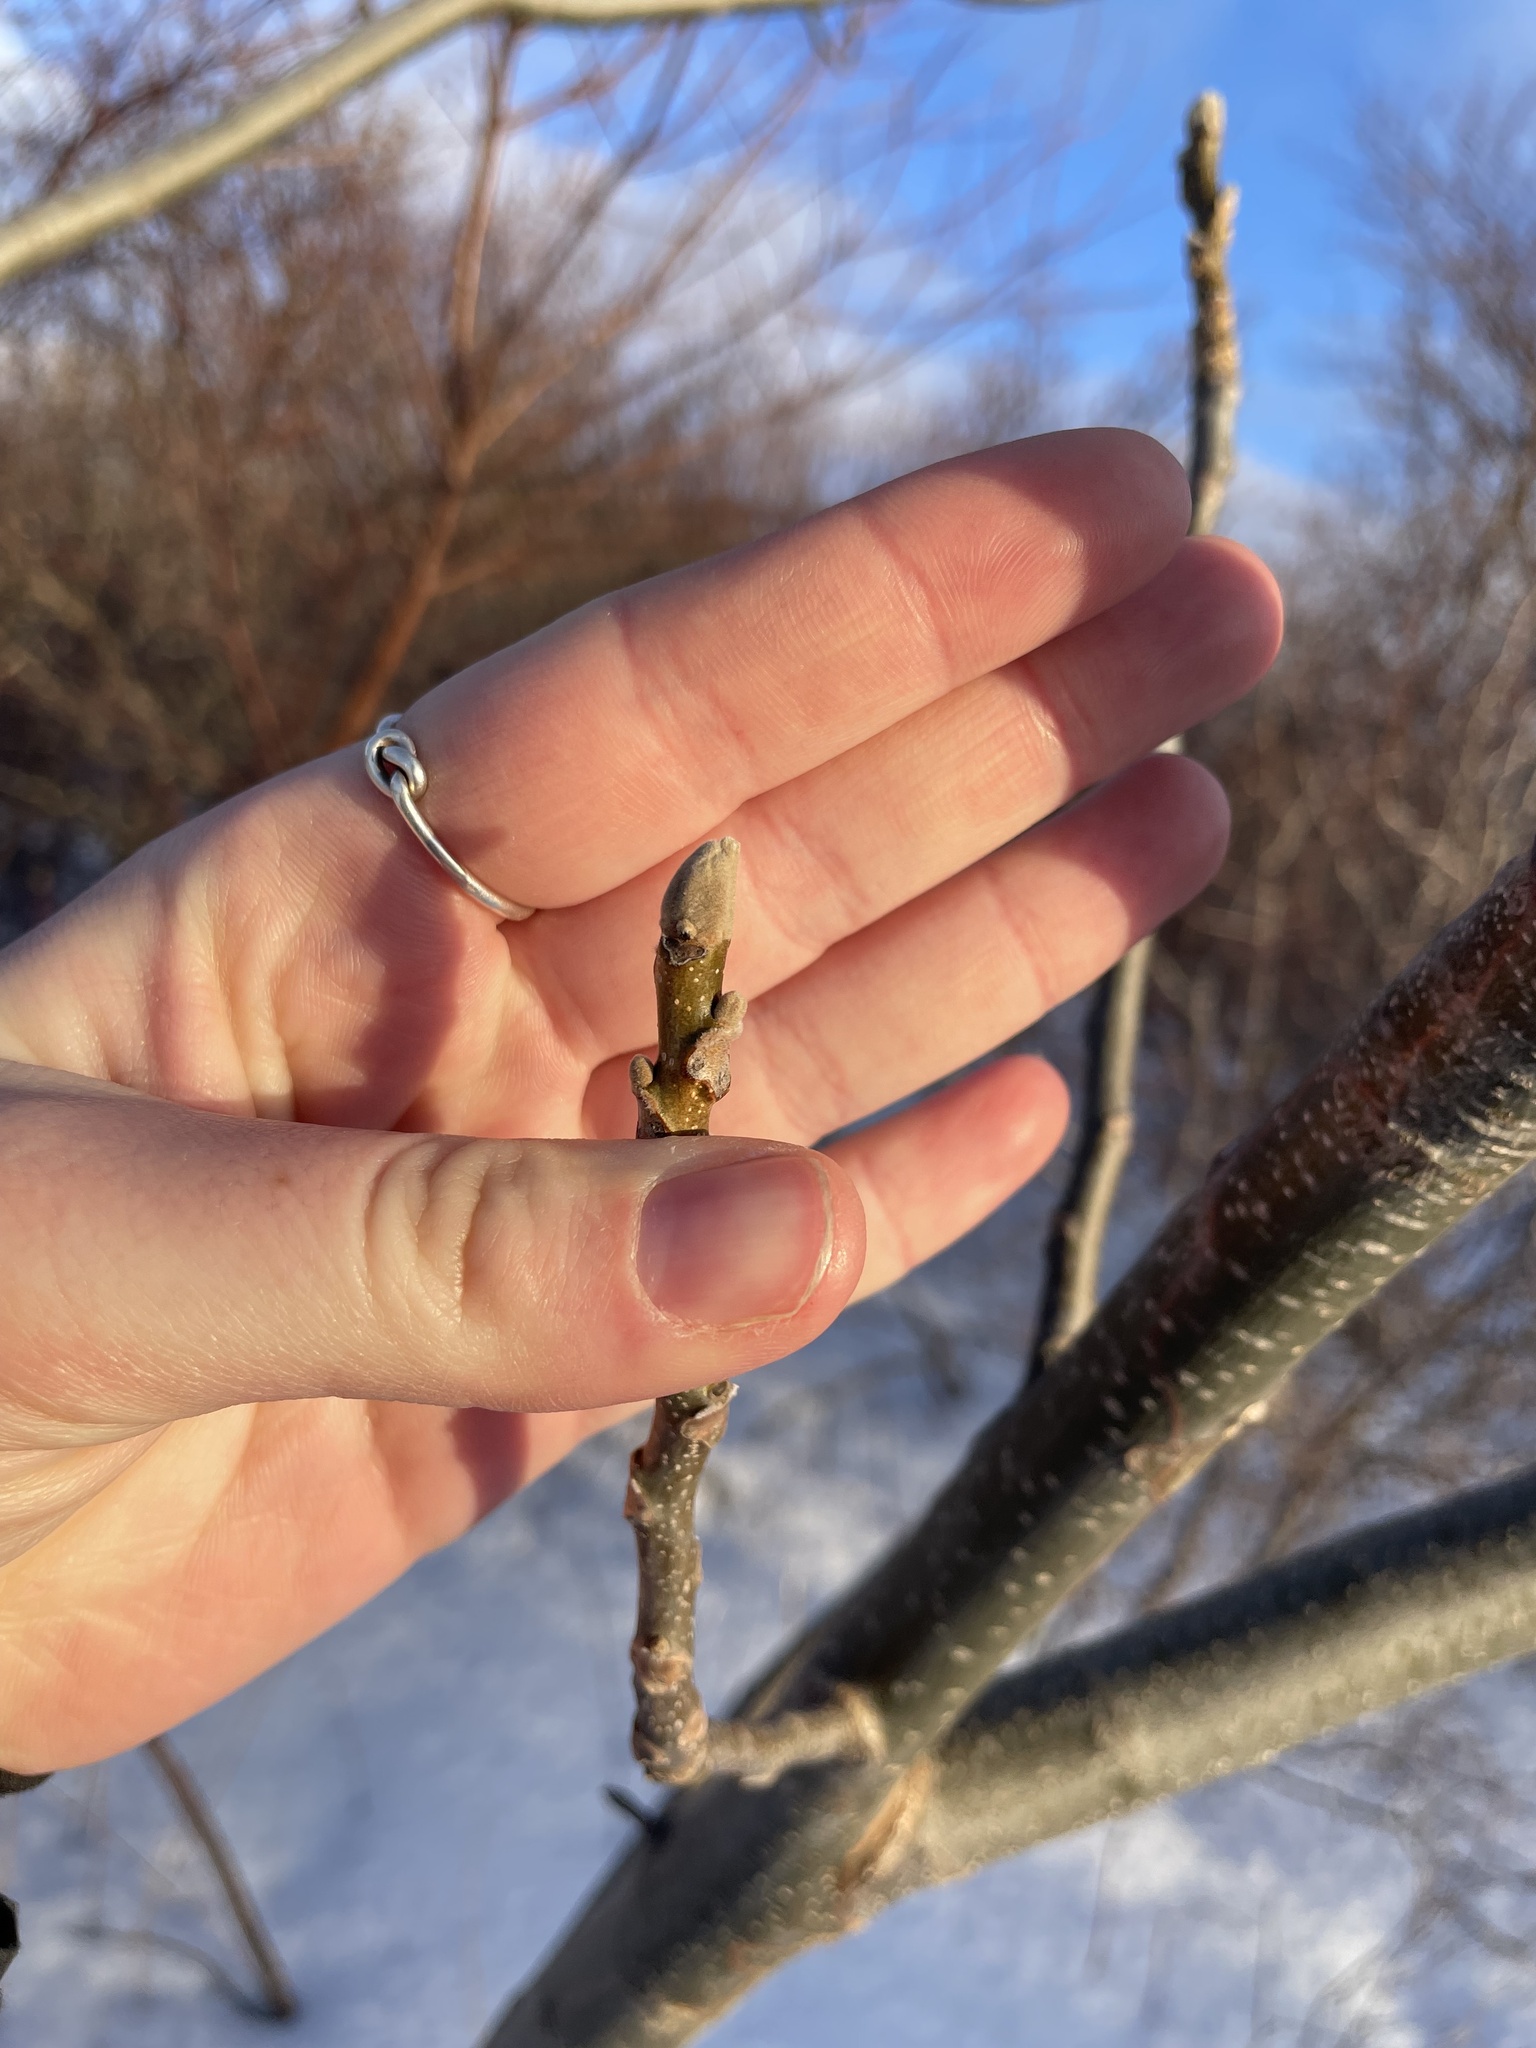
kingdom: Plantae
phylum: Tracheophyta
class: Magnoliopsida
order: Fagales
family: Juglandaceae
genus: Juglans
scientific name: Juglans cinerea
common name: Butternut
